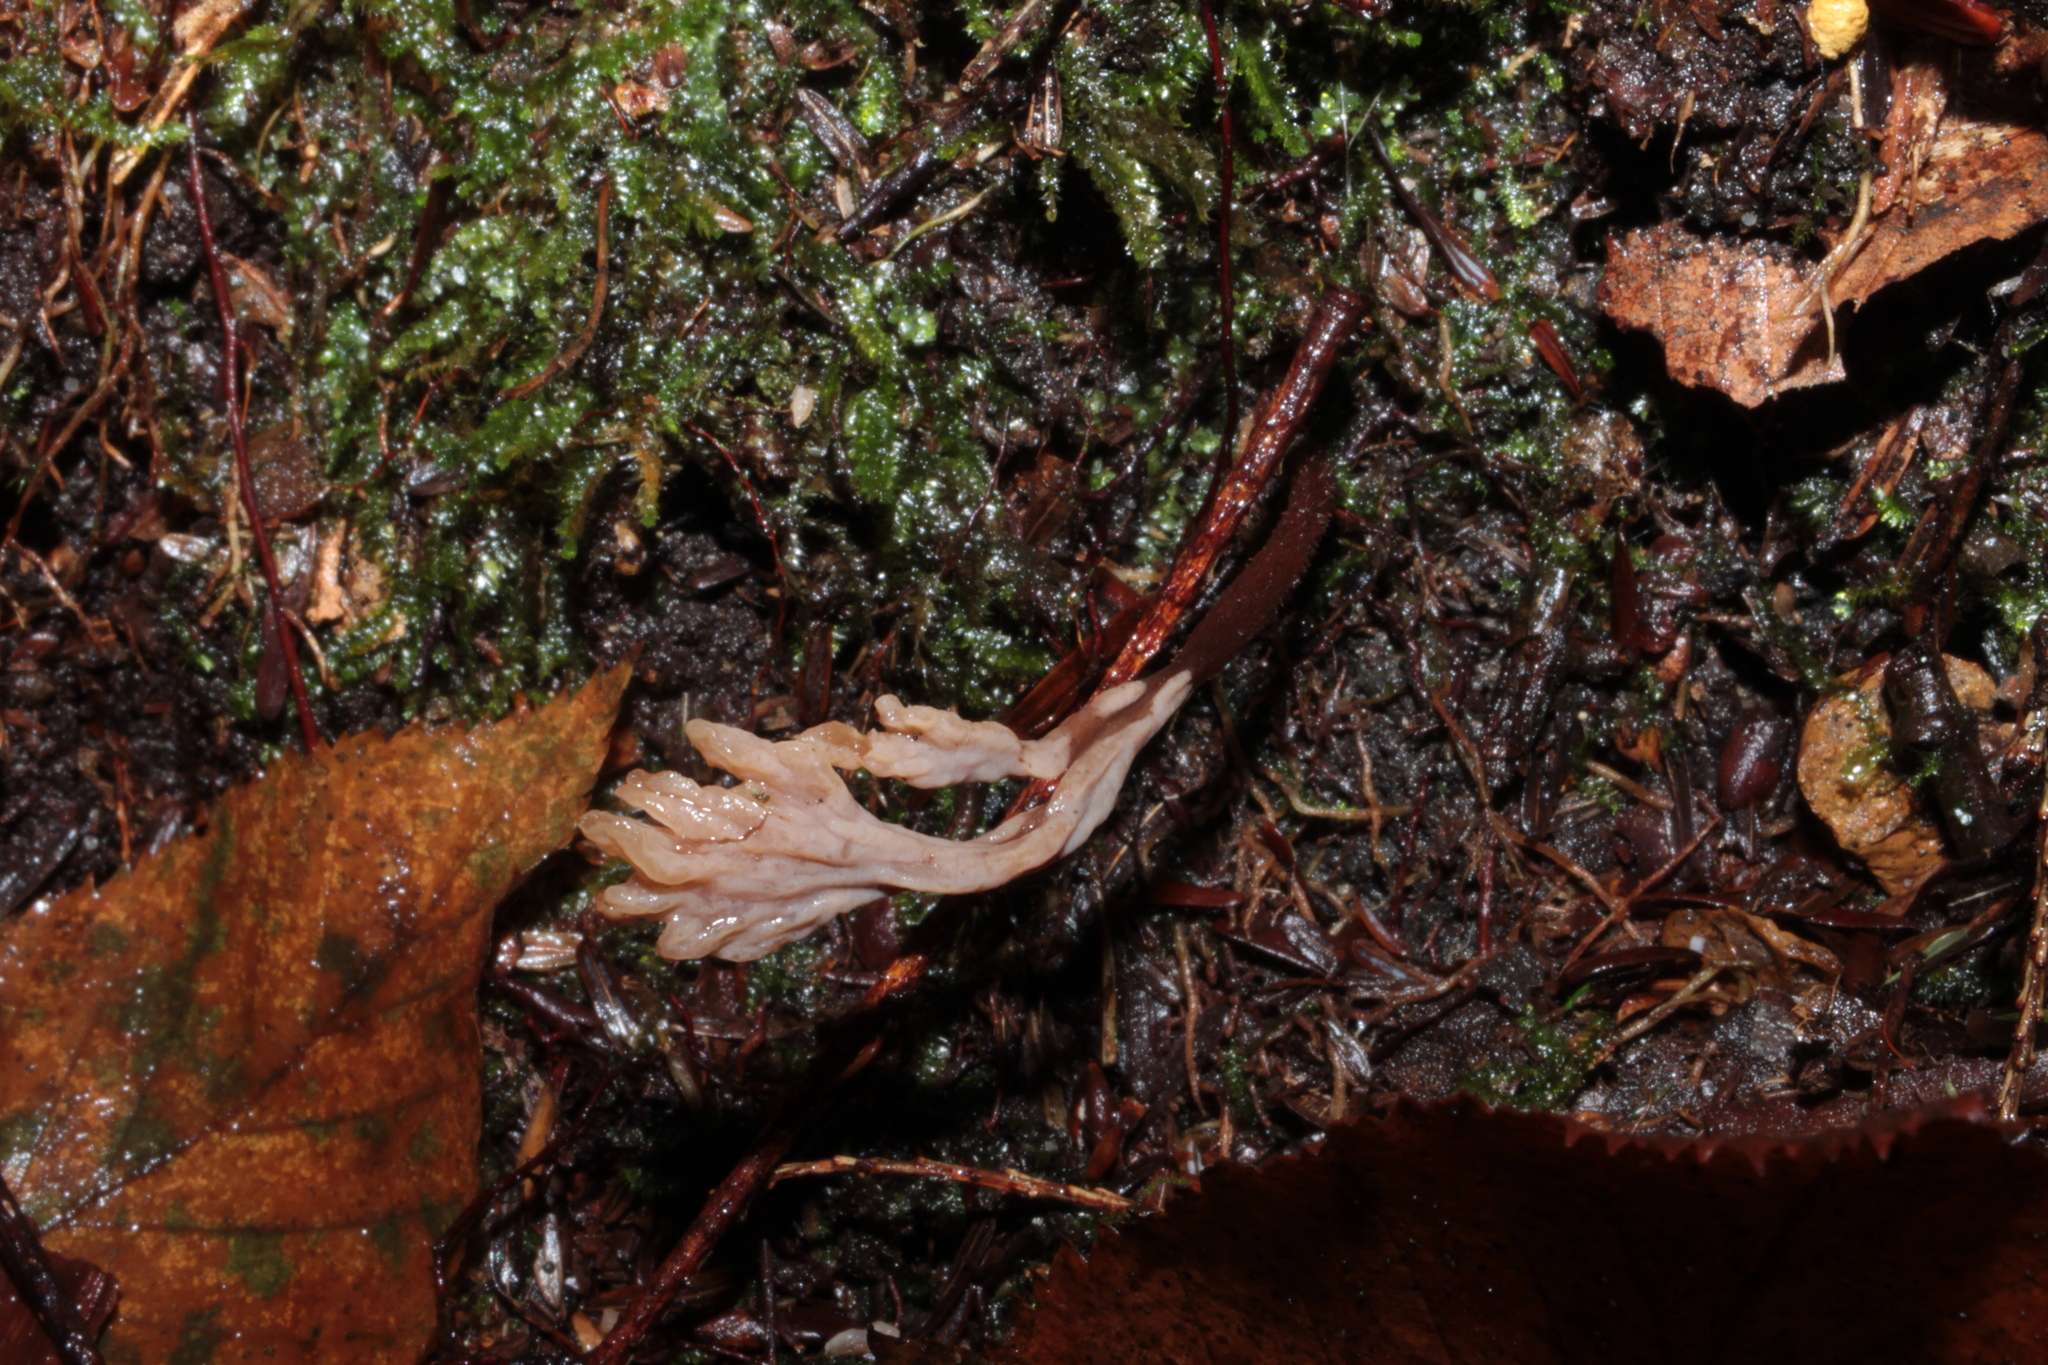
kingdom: Fungi
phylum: Basidiomycota
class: Agaricomycetes
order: Cantharellales
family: Hydnaceae
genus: Clavulina
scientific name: Clavulina ornatipes
